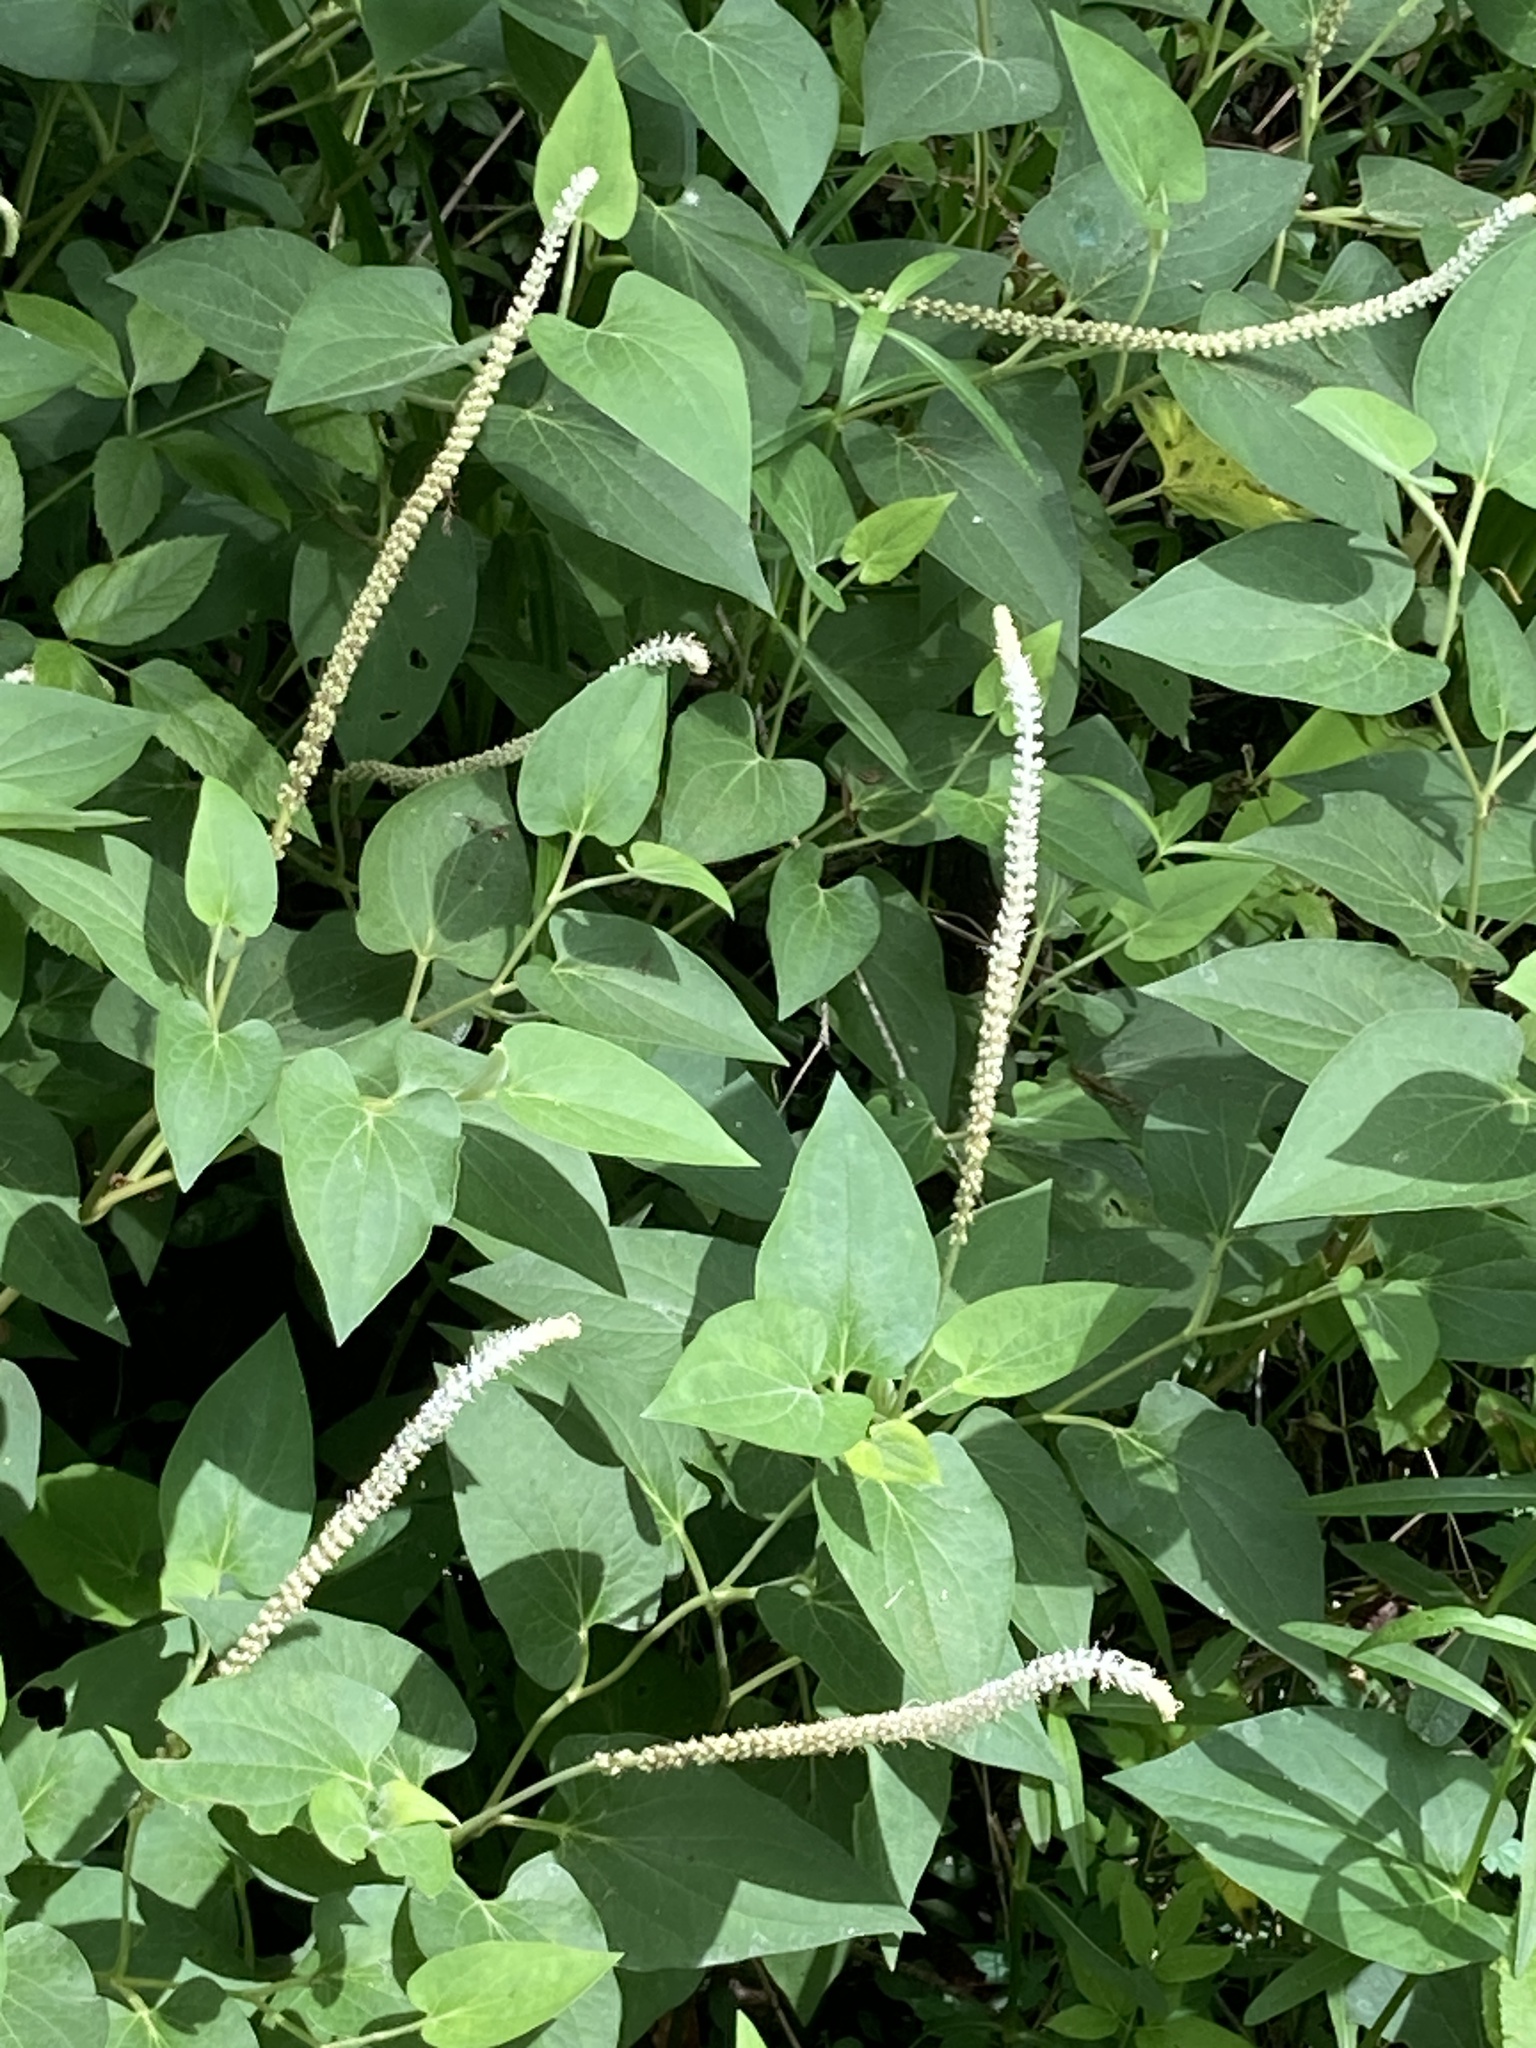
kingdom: Plantae
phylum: Tracheophyta
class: Magnoliopsida
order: Piperales
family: Saururaceae
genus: Saururus
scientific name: Saururus cernuus
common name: Lizard's-tail
